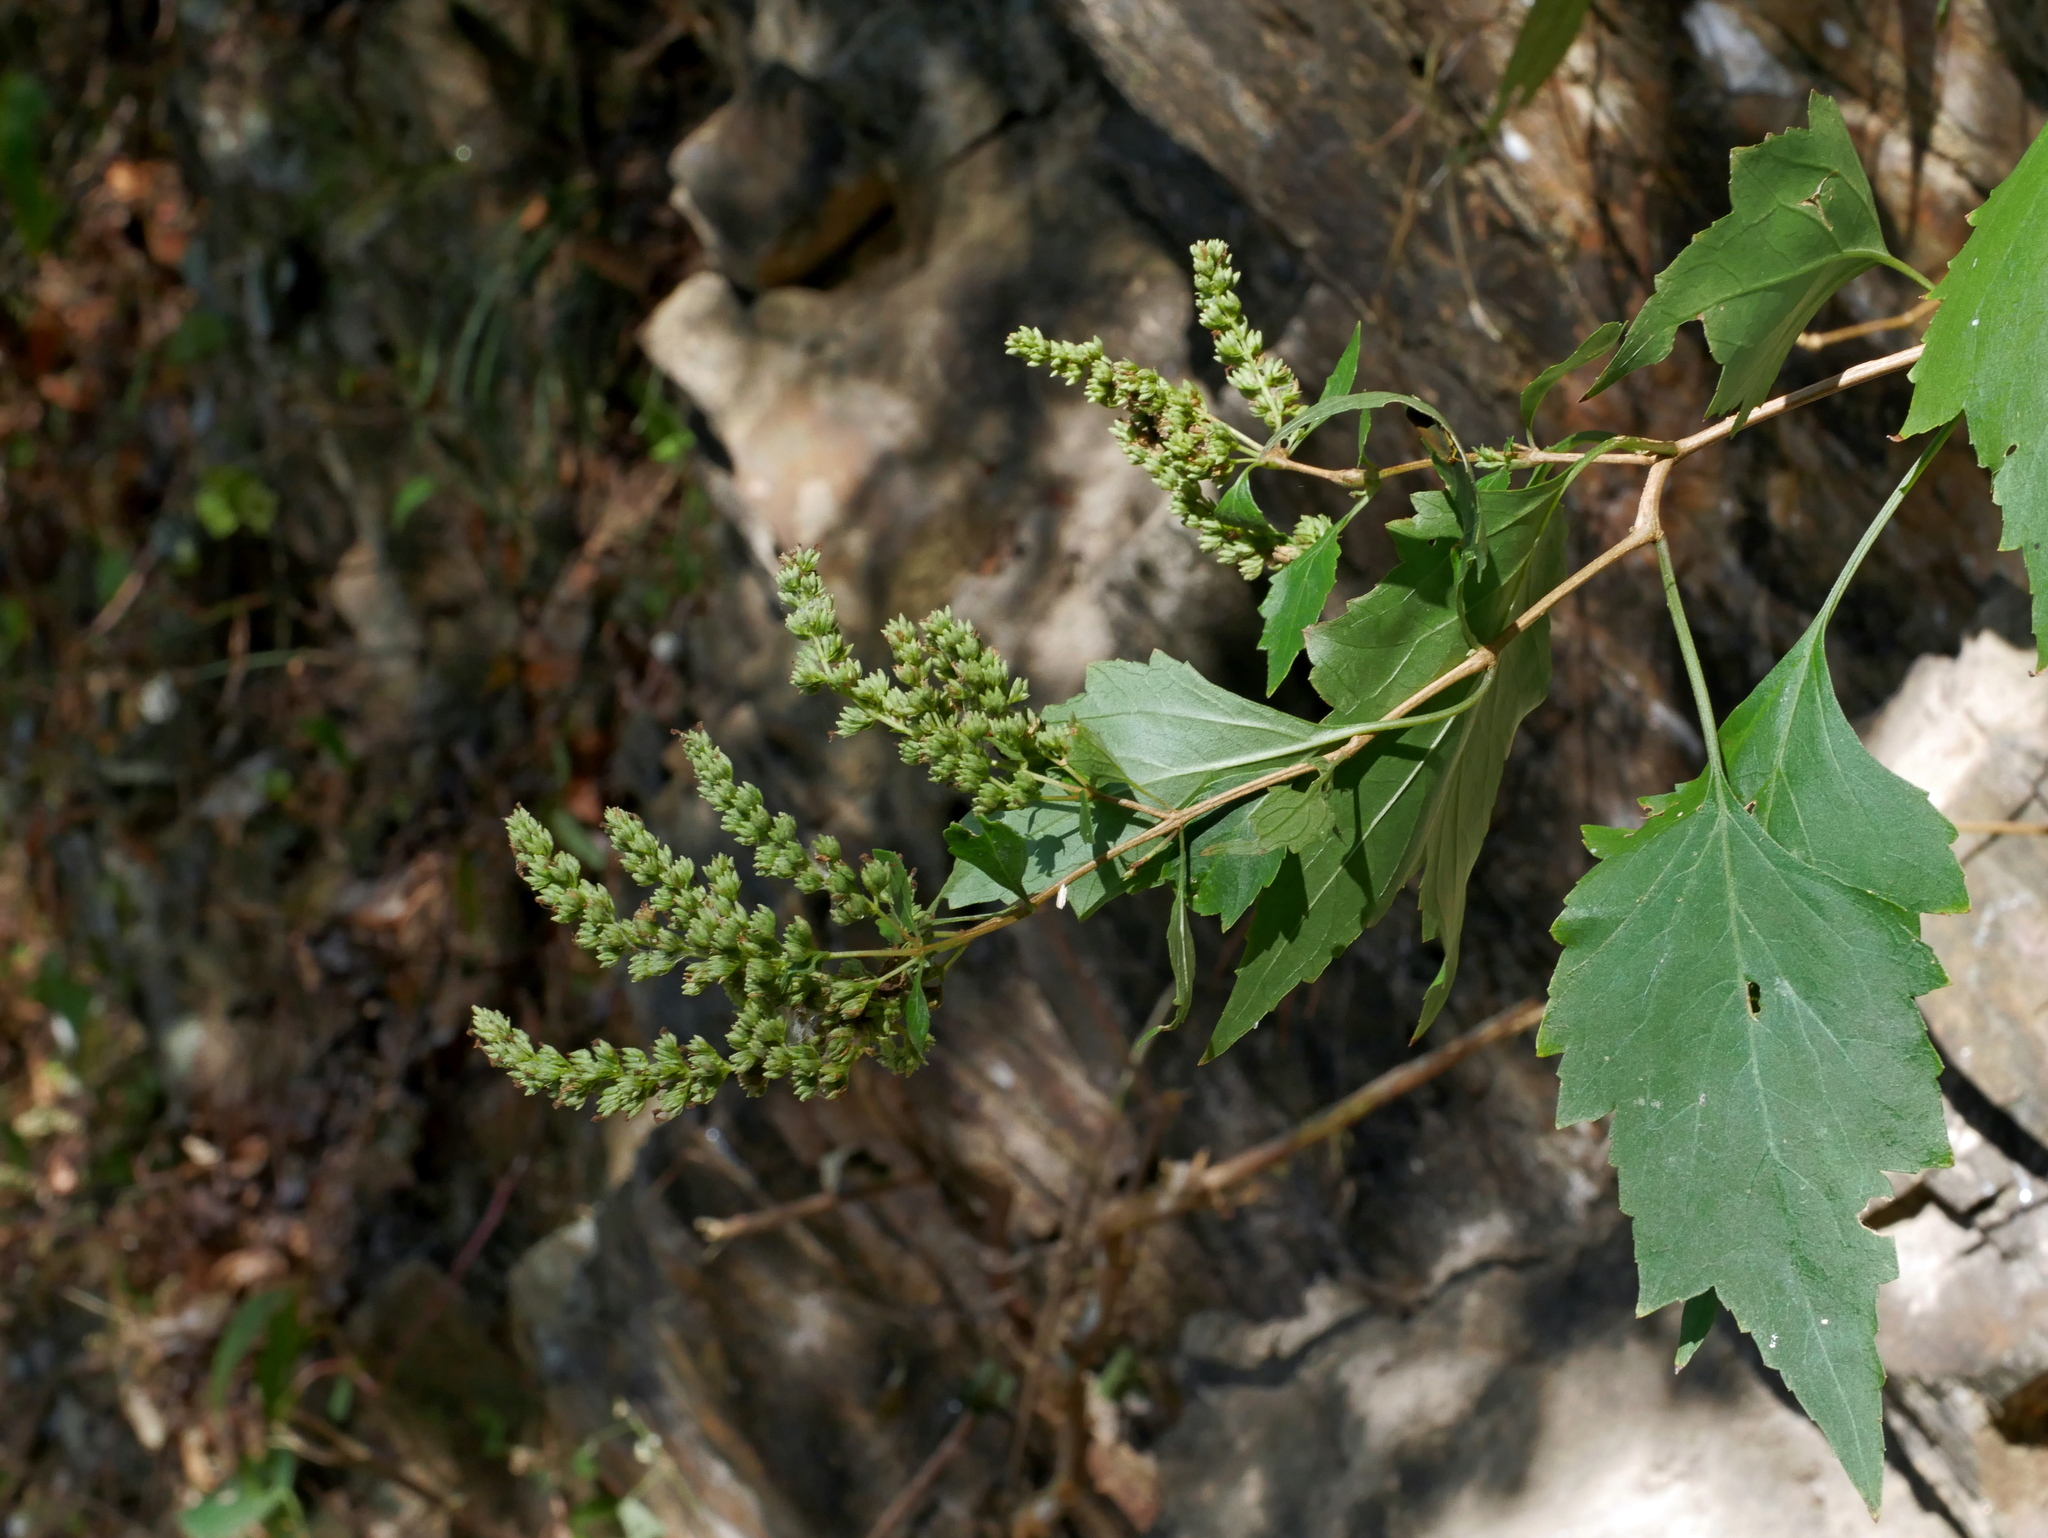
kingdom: Plantae
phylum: Tracheophyta
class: Magnoliopsida
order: Lamiales
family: Lamiaceae
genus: Pogostemon
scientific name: Pogostemon formosanus
